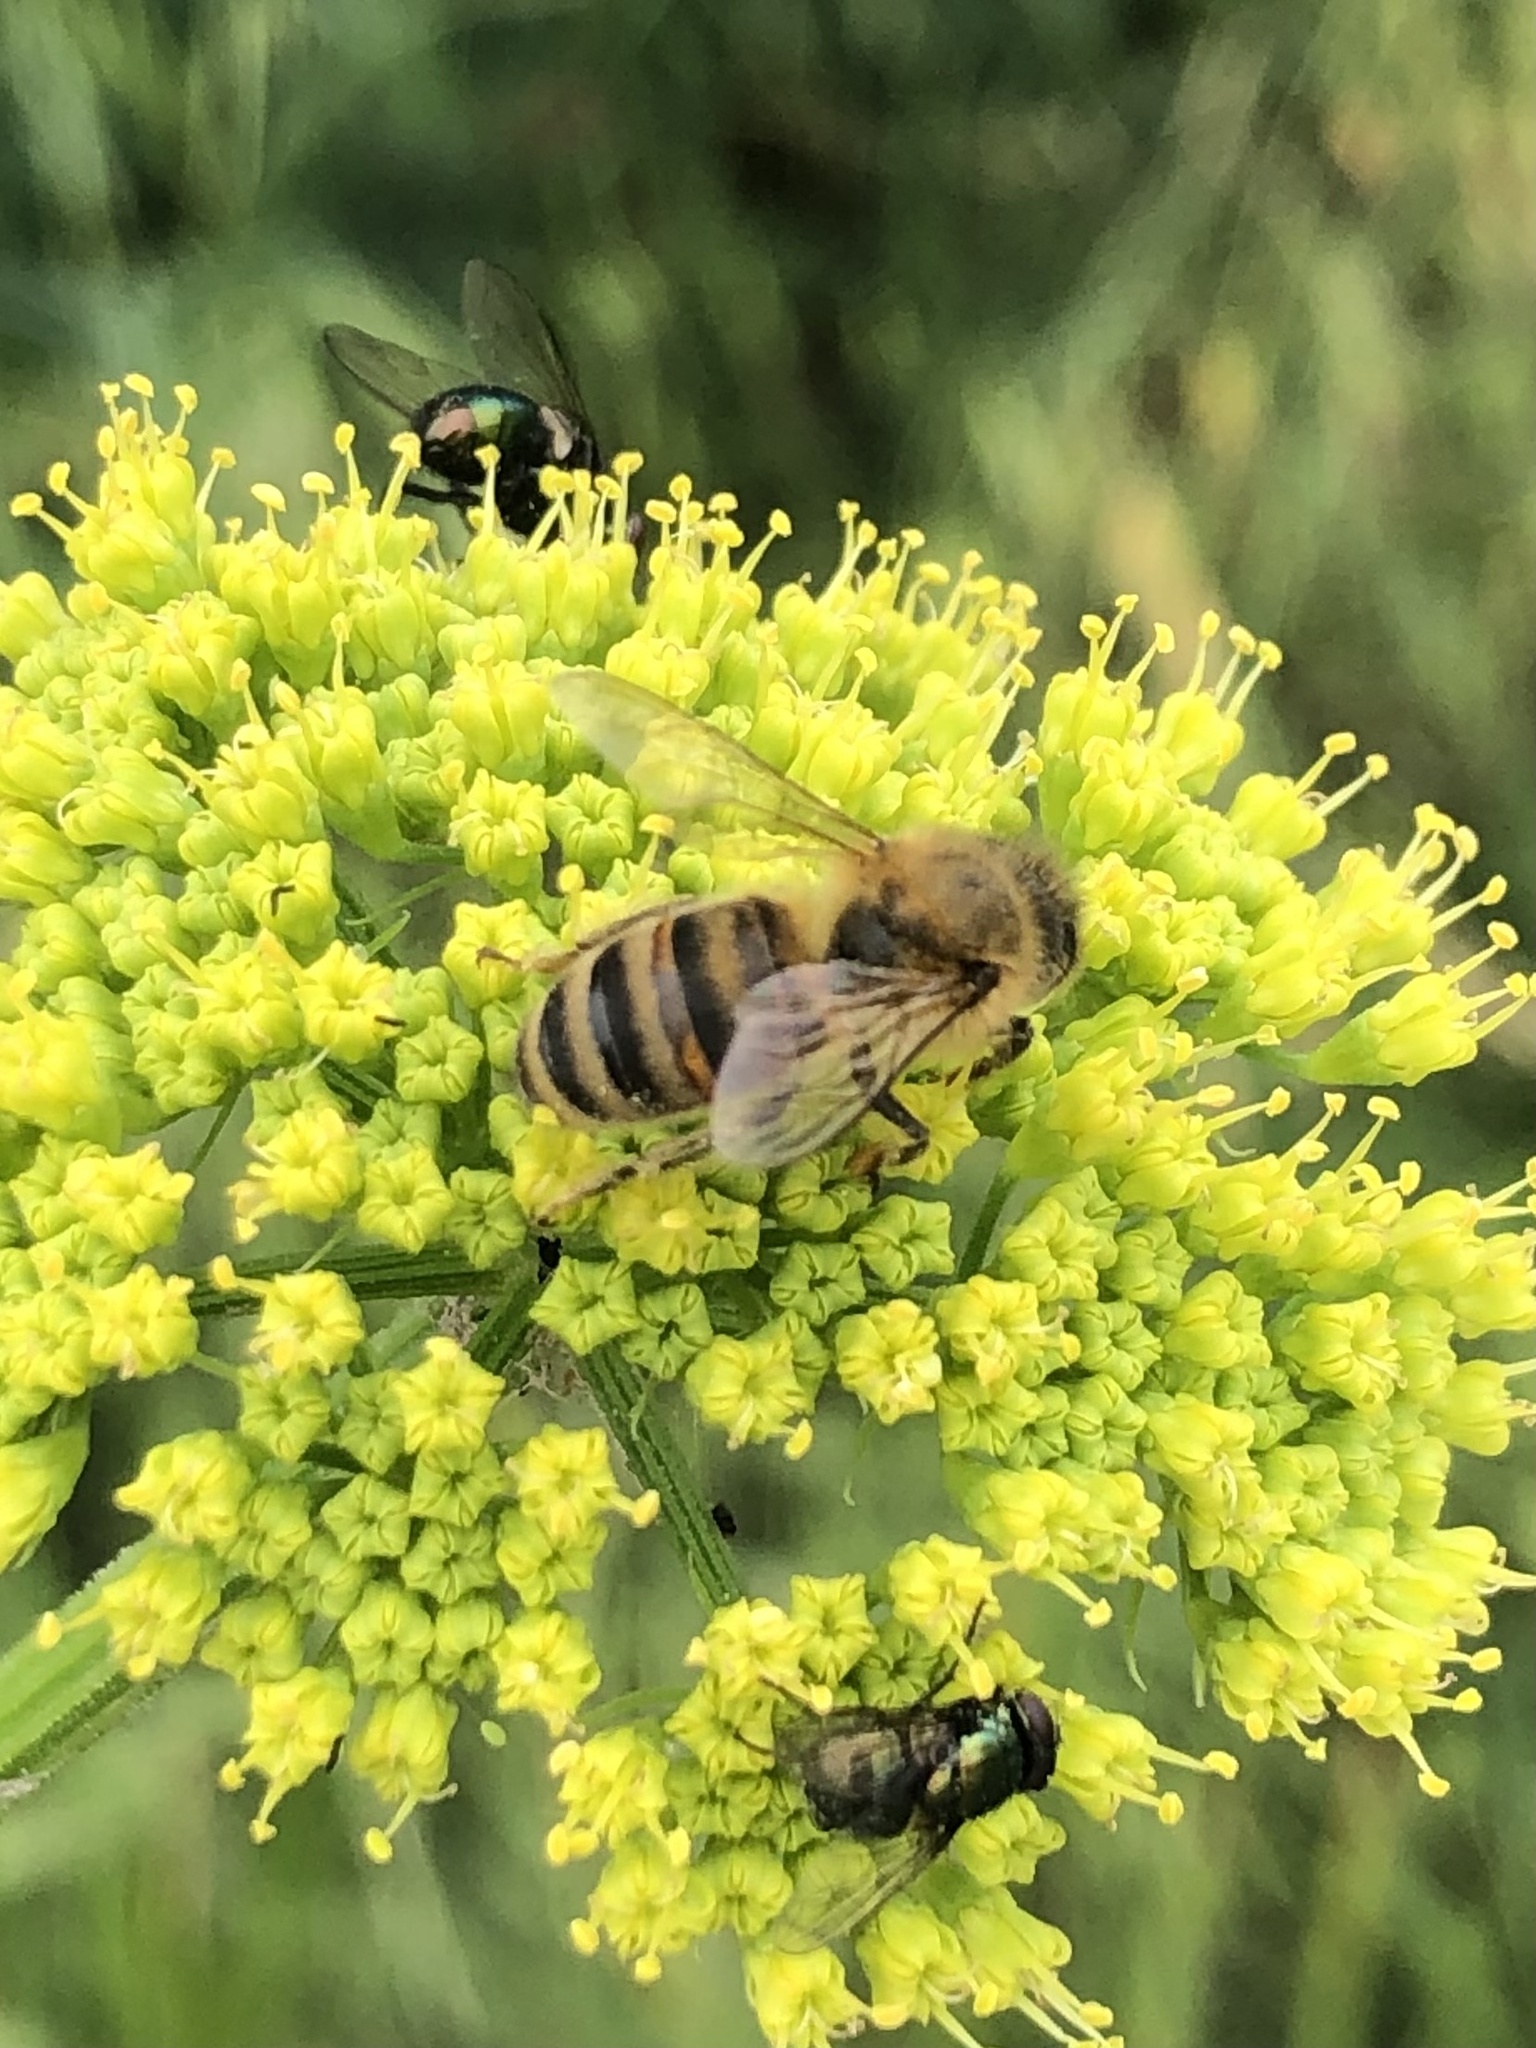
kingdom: Animalia
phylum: Arthropoda
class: Insecta
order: Hymenoptera
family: Apidae
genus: Apis
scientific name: Apis mellifera
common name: Honey bee
